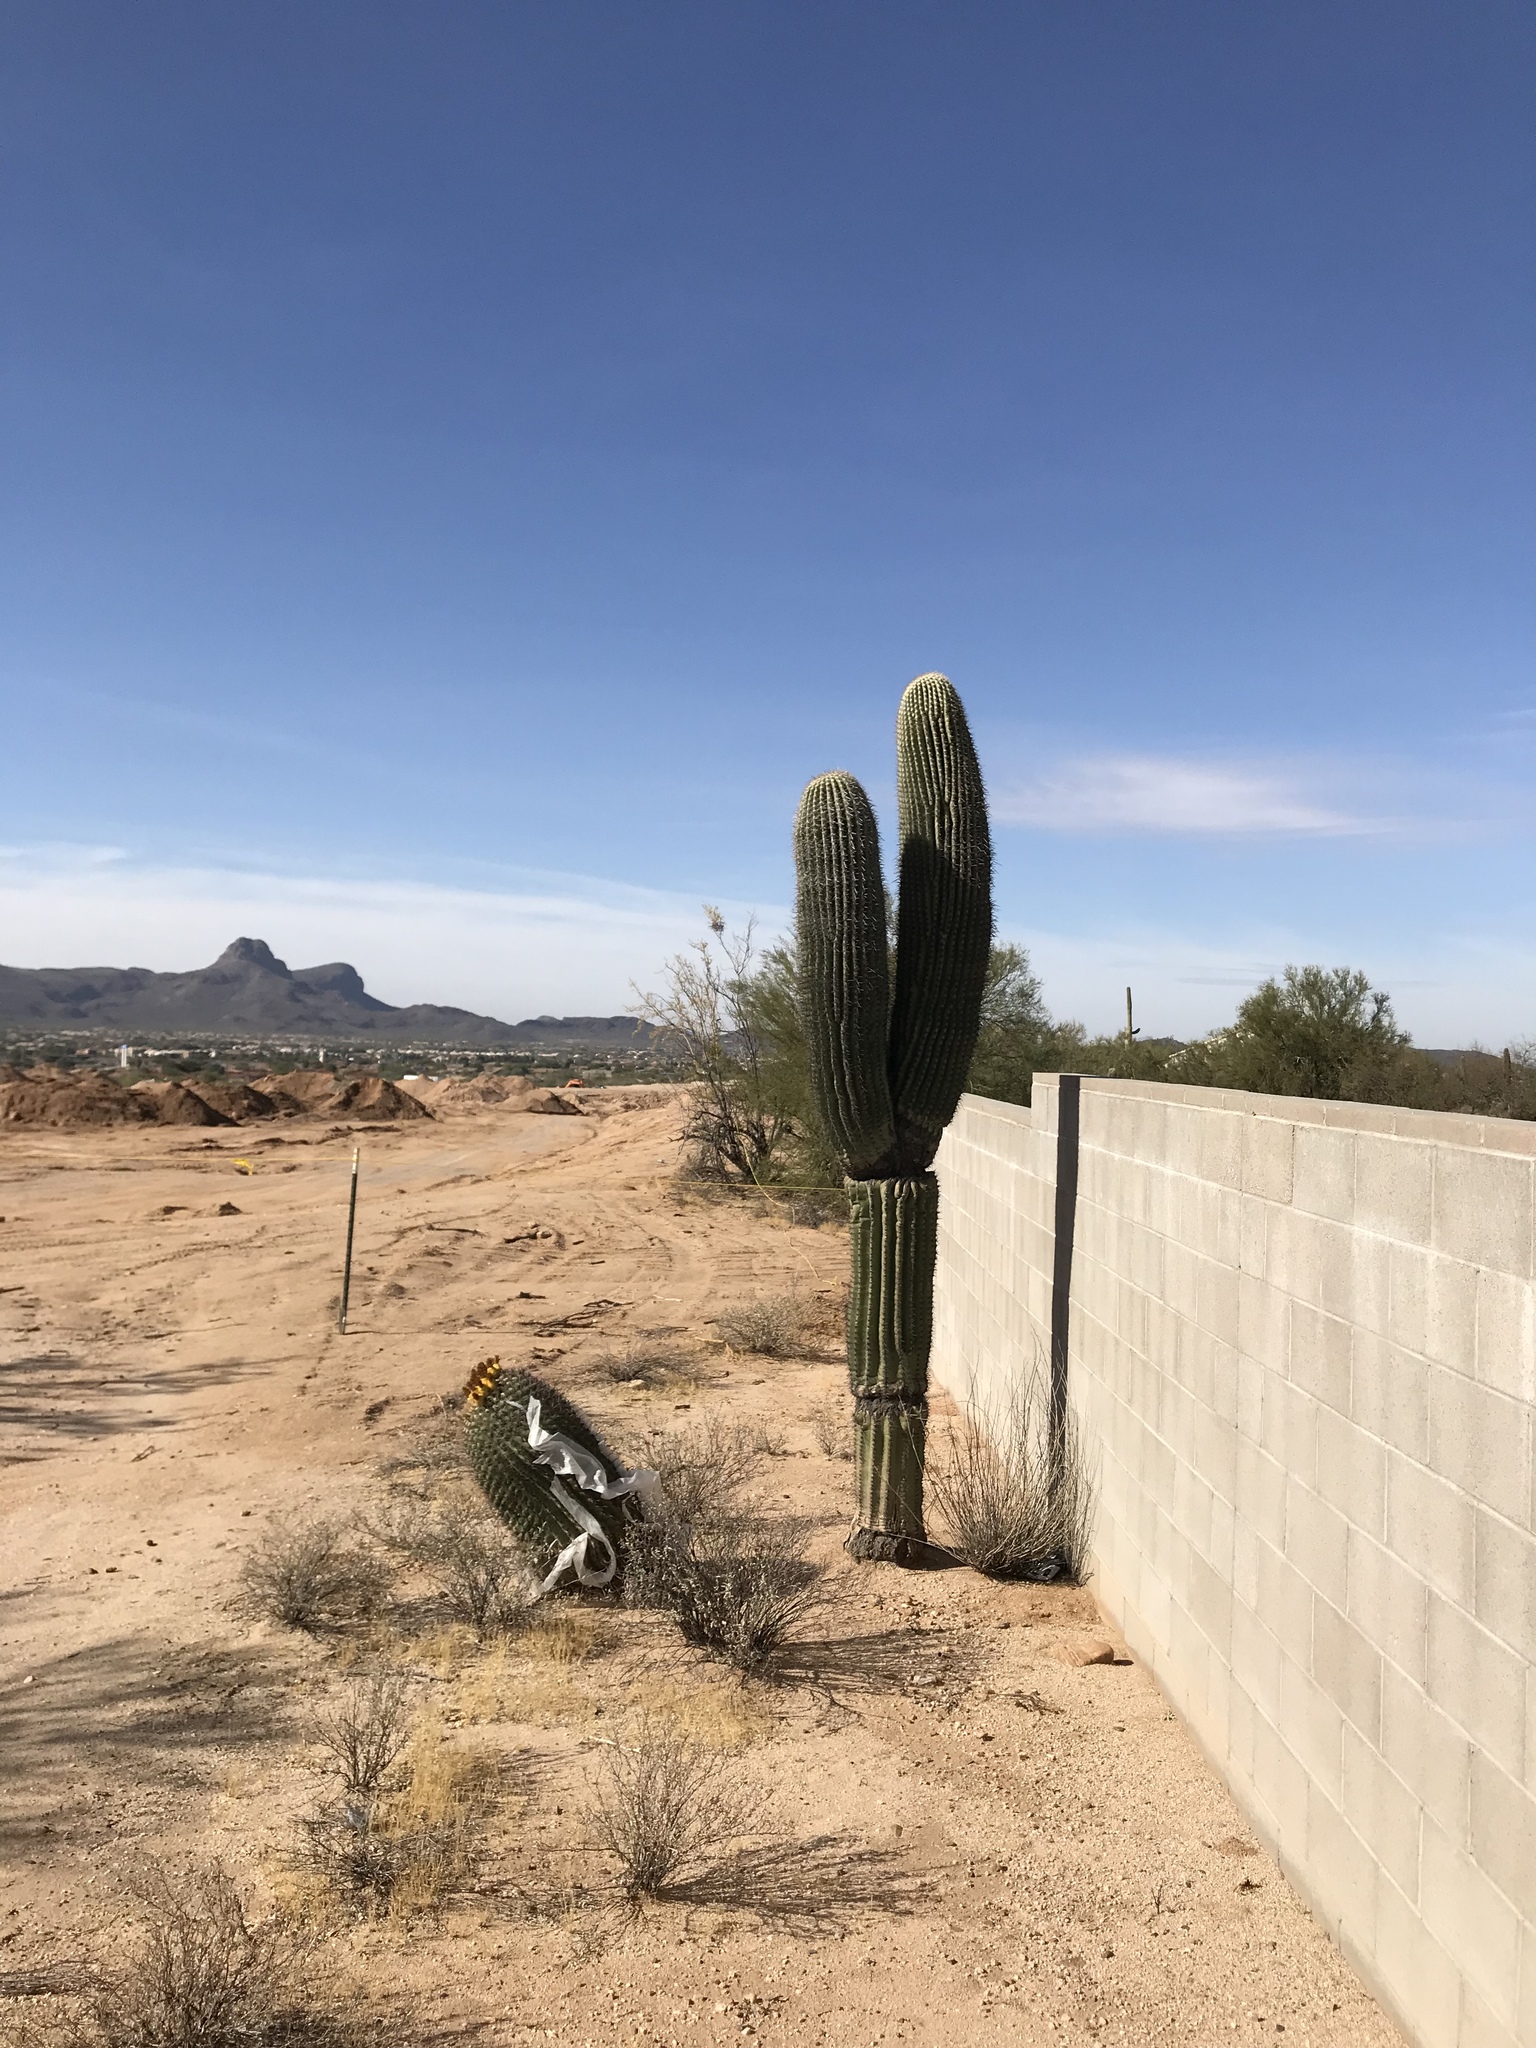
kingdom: Plantae
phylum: Tracheophyta
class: Magnoliopsida
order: Caryophyllales
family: Cactaceae
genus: Carnegiea
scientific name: Carnegiea gigantea
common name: Saguaro
